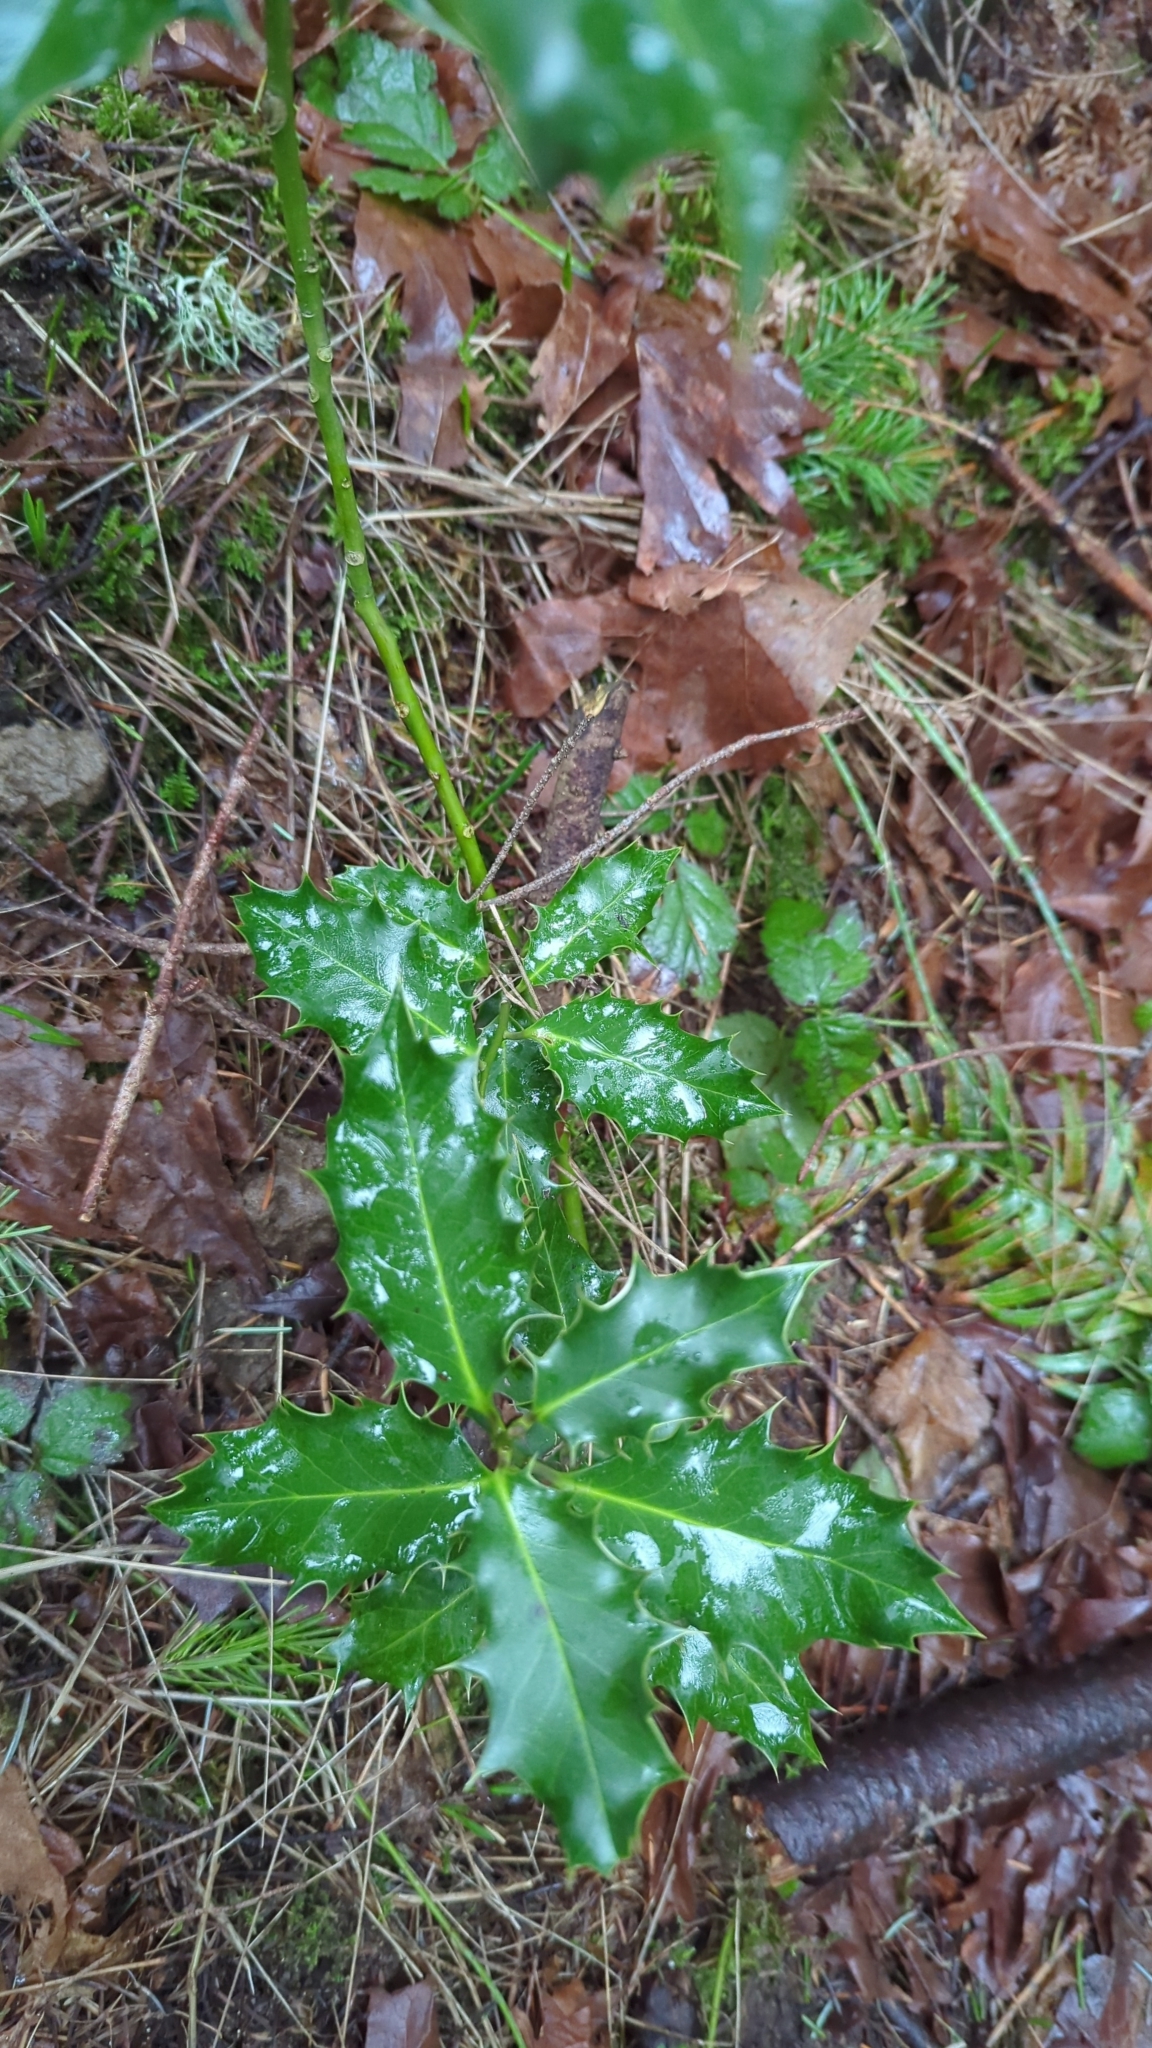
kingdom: Plantae
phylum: Tracheophyta
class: Magnoliopsida
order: Aquifoliales
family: Aquifoliaceae
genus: Ilex
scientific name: Ilex aquifolium
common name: English holly
